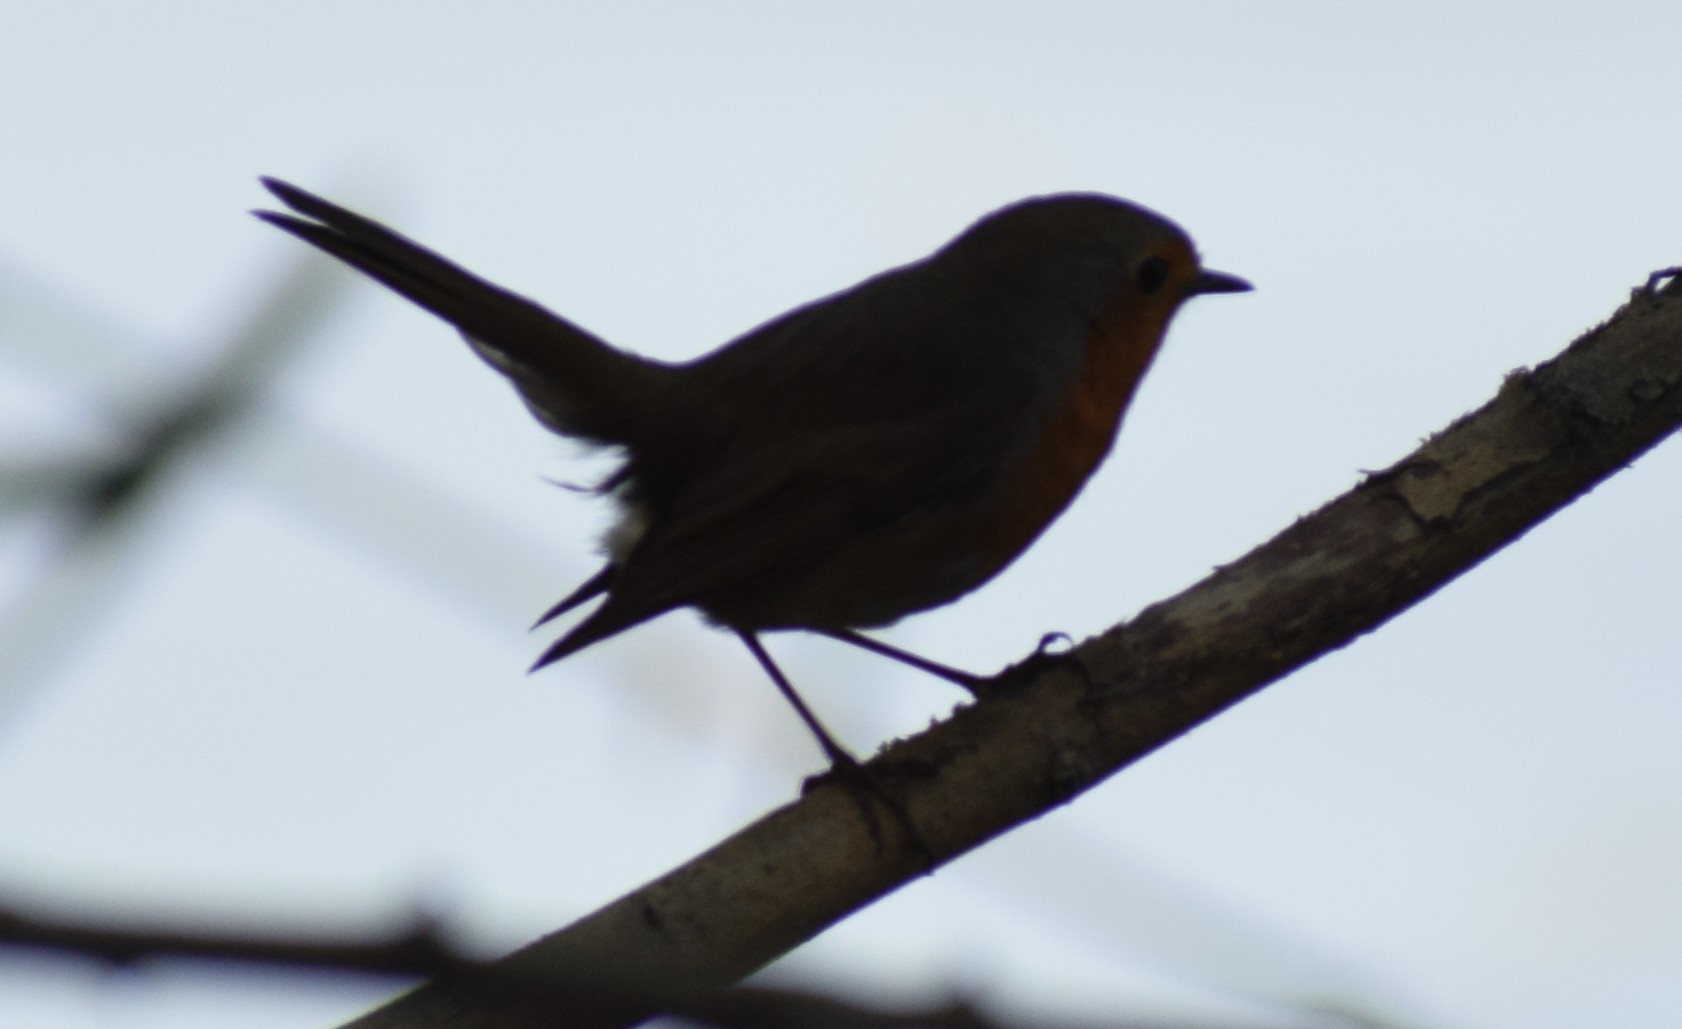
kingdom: Animalia
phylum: Chordata
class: Aves
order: Passeriformes
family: Muscicapidae
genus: Erithacus
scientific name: Erithacus rubecula
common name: European robin
